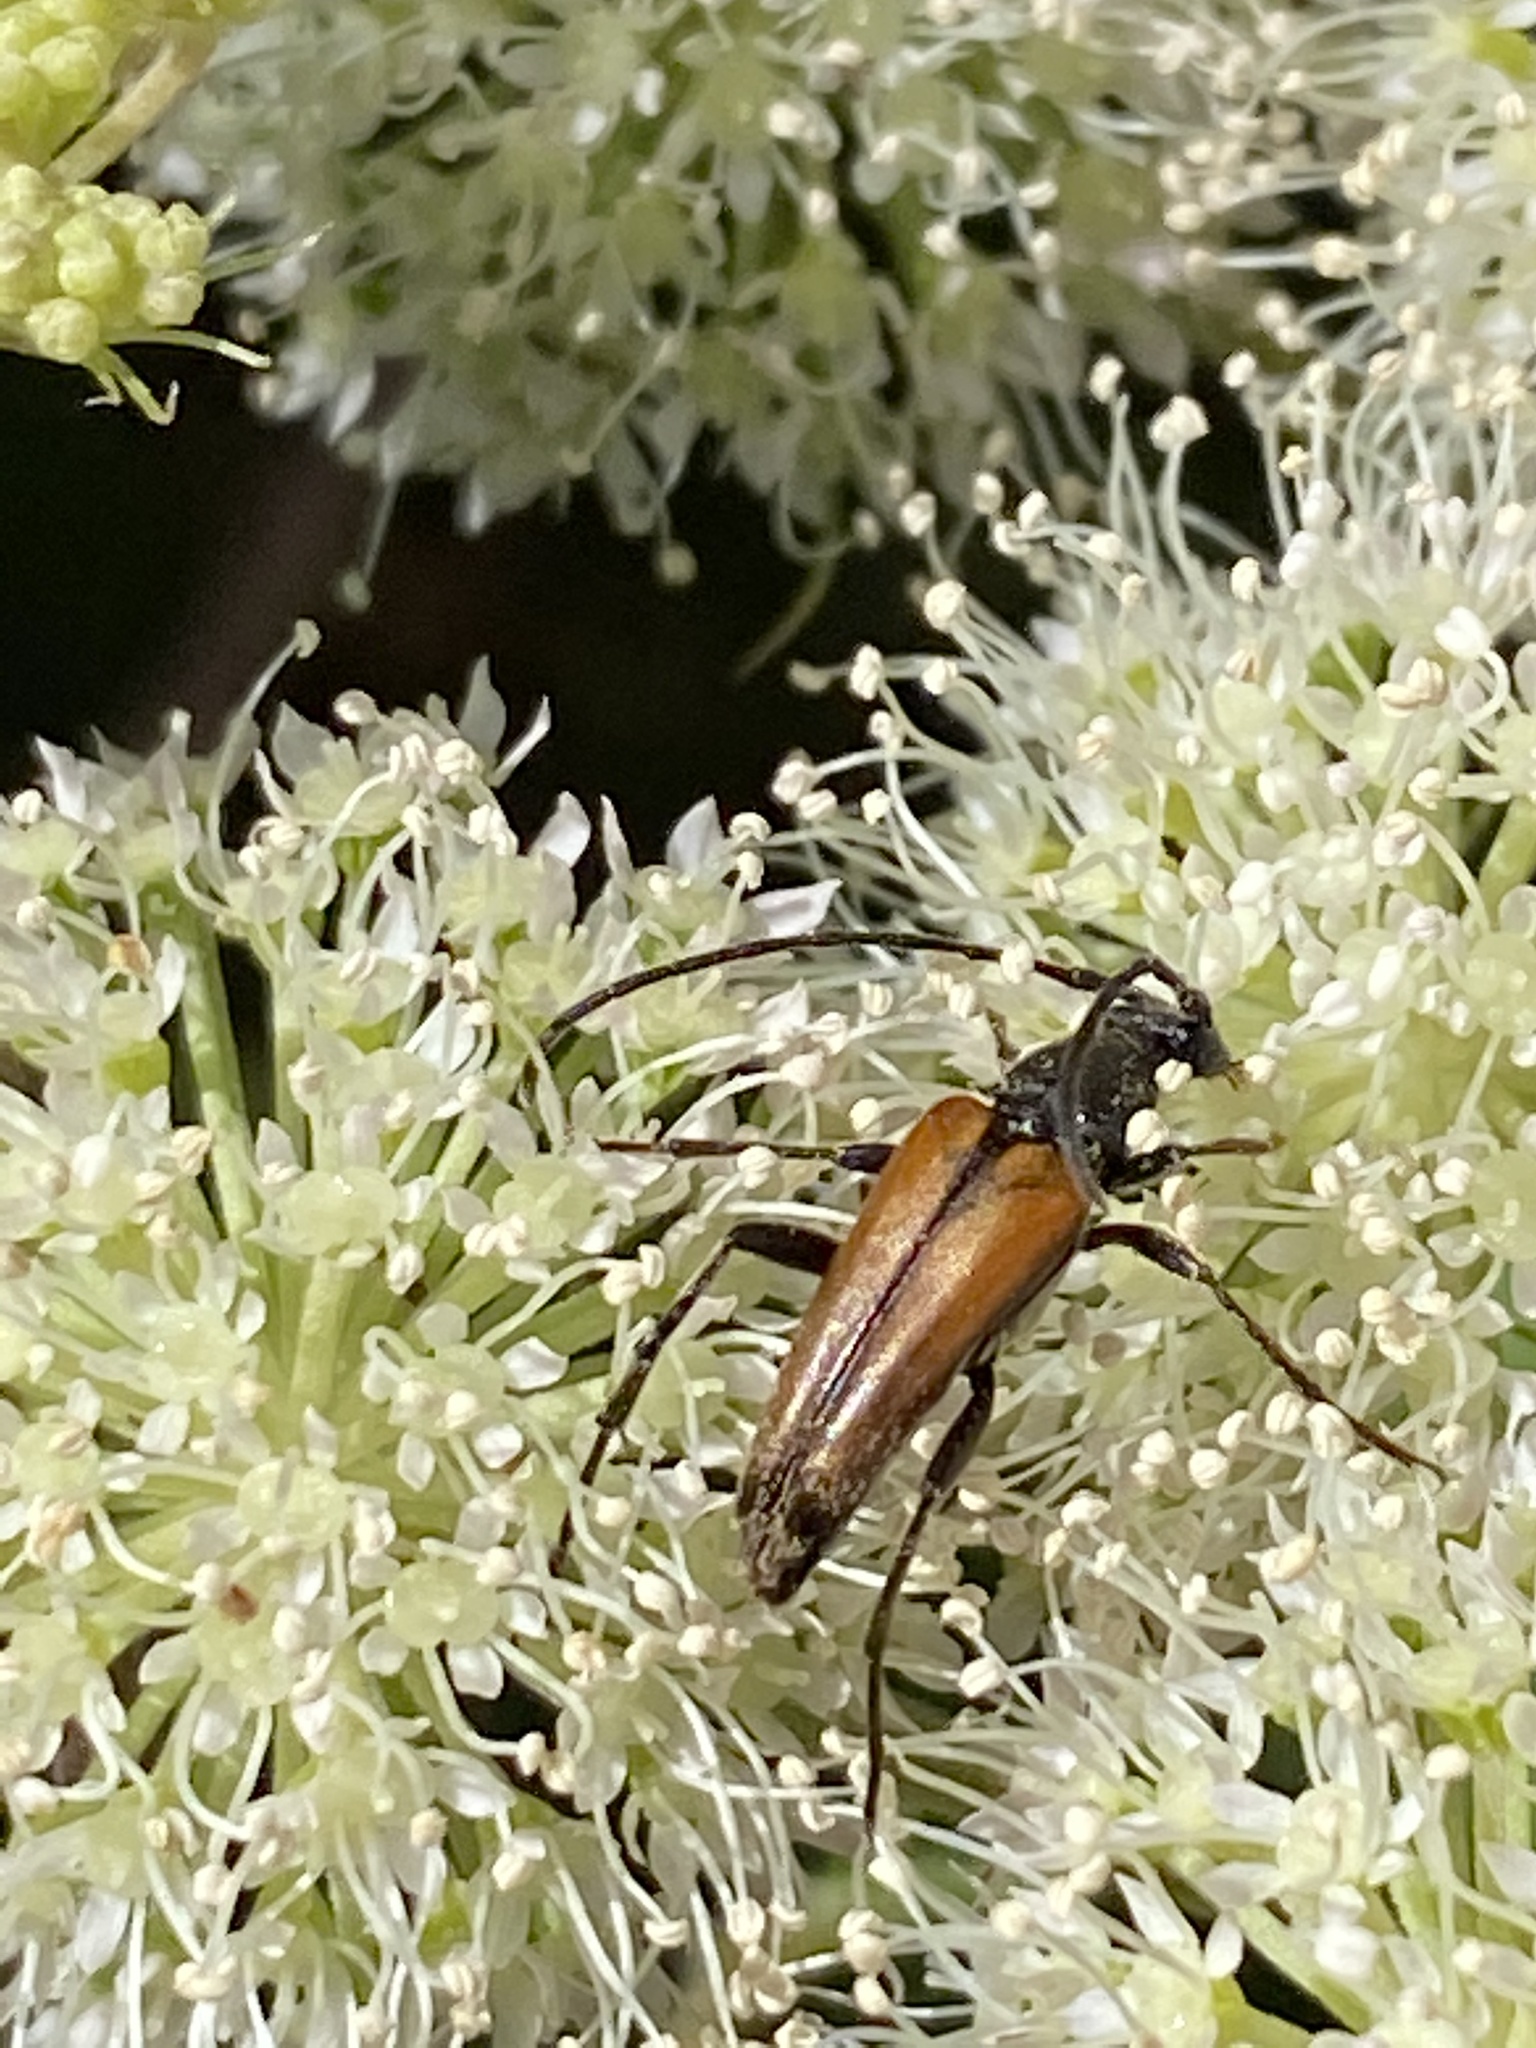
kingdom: Animalia
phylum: Arthropoda
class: Insecta
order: Coleoptera
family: Cerambycidae
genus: Stenurella
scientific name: Stenurella melanura
